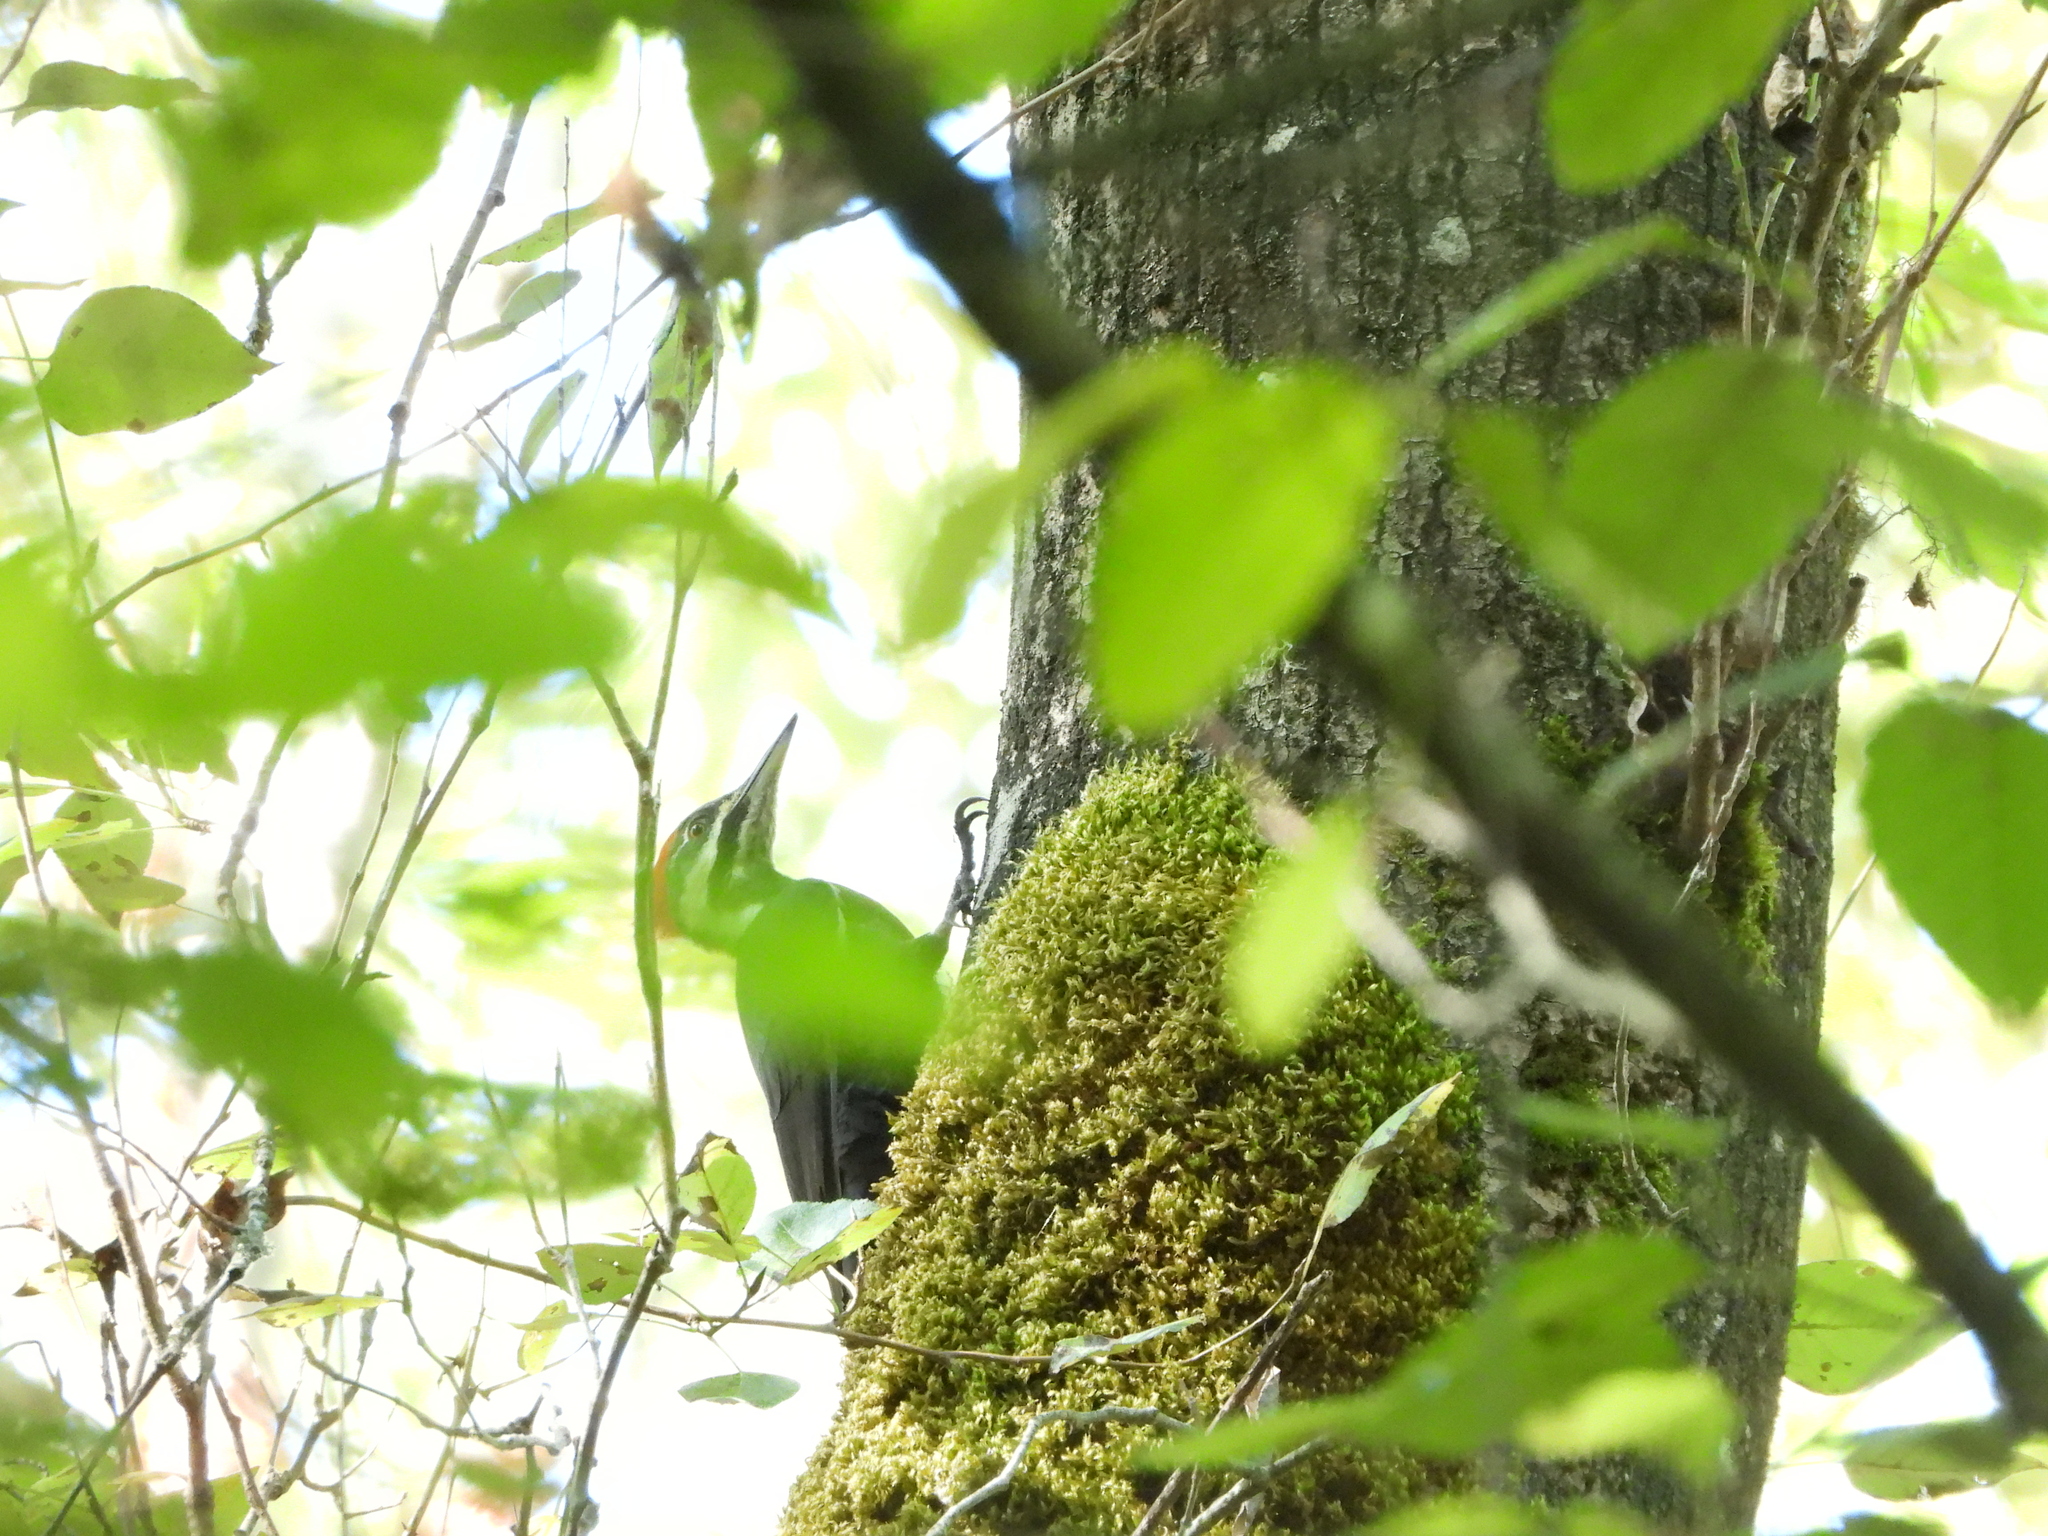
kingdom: Animalia
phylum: Chordata
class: Aves
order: Piciformes
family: Picidae
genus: Dryocopus
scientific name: Dryocopus pileatus
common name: Pileated woodpecker
